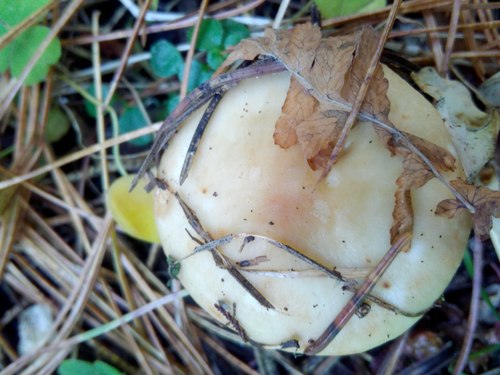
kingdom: Fungi
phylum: Basidiomycota
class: Agaricomycetes
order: Russulales
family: Russulaceae
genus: Russula
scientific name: Russula
